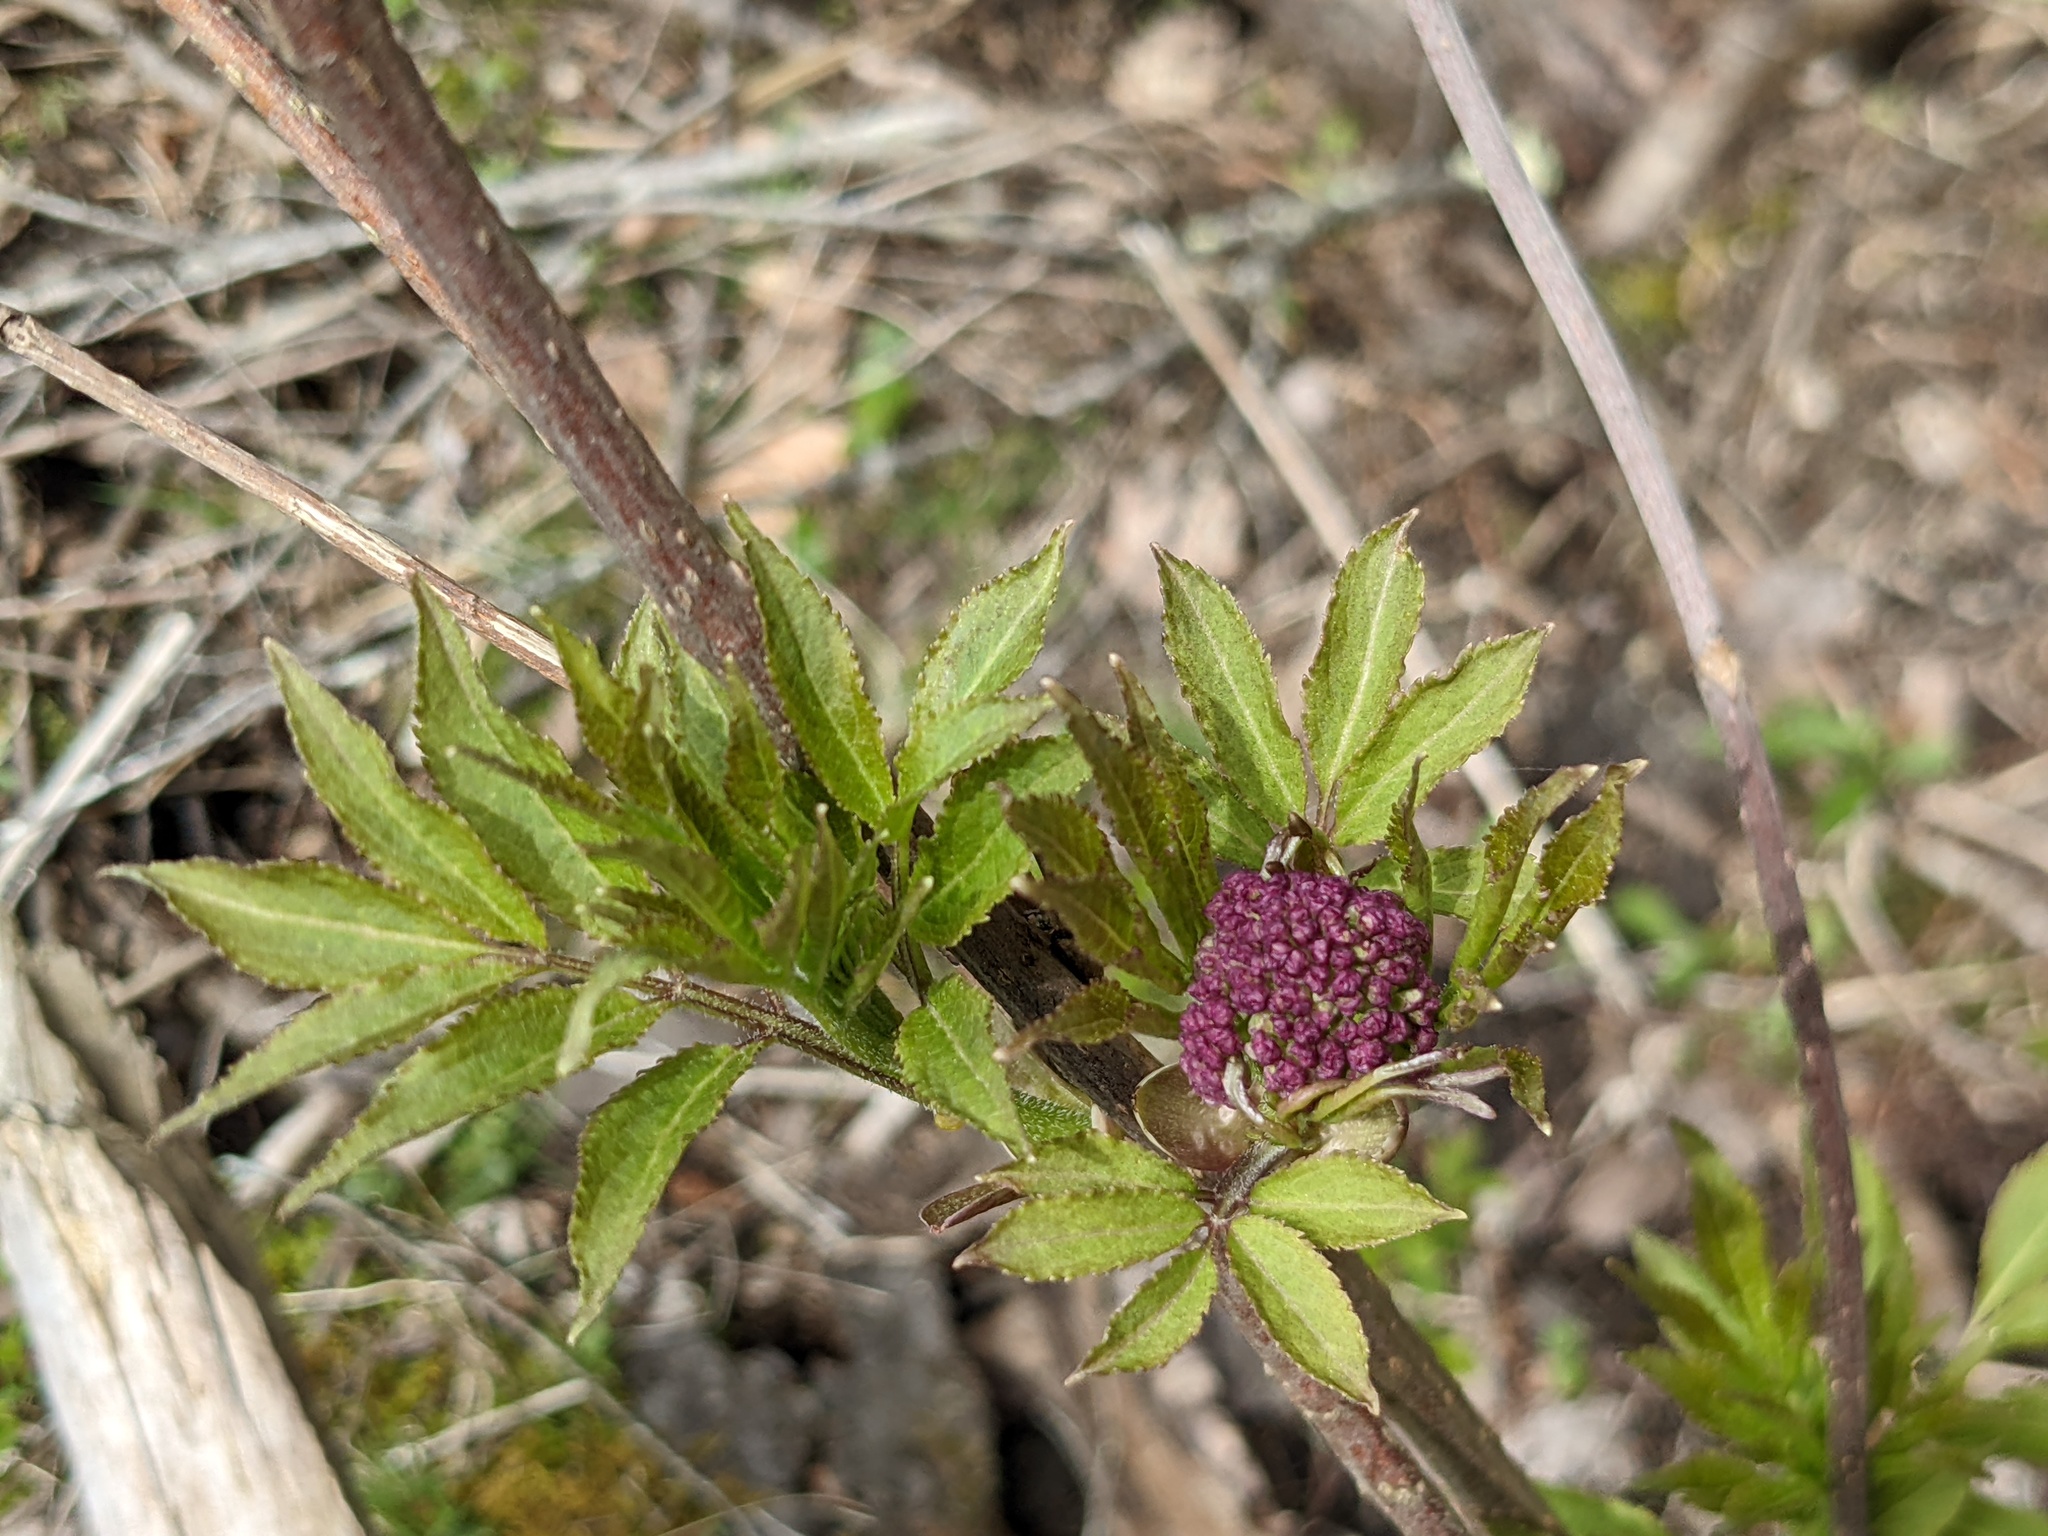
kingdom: Plantae
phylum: Tracheophyta
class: Magnoliopsida
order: Dipsacales
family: Viburnaceae
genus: Sambucus
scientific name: Sambucus racemosa
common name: Red-berried elder
